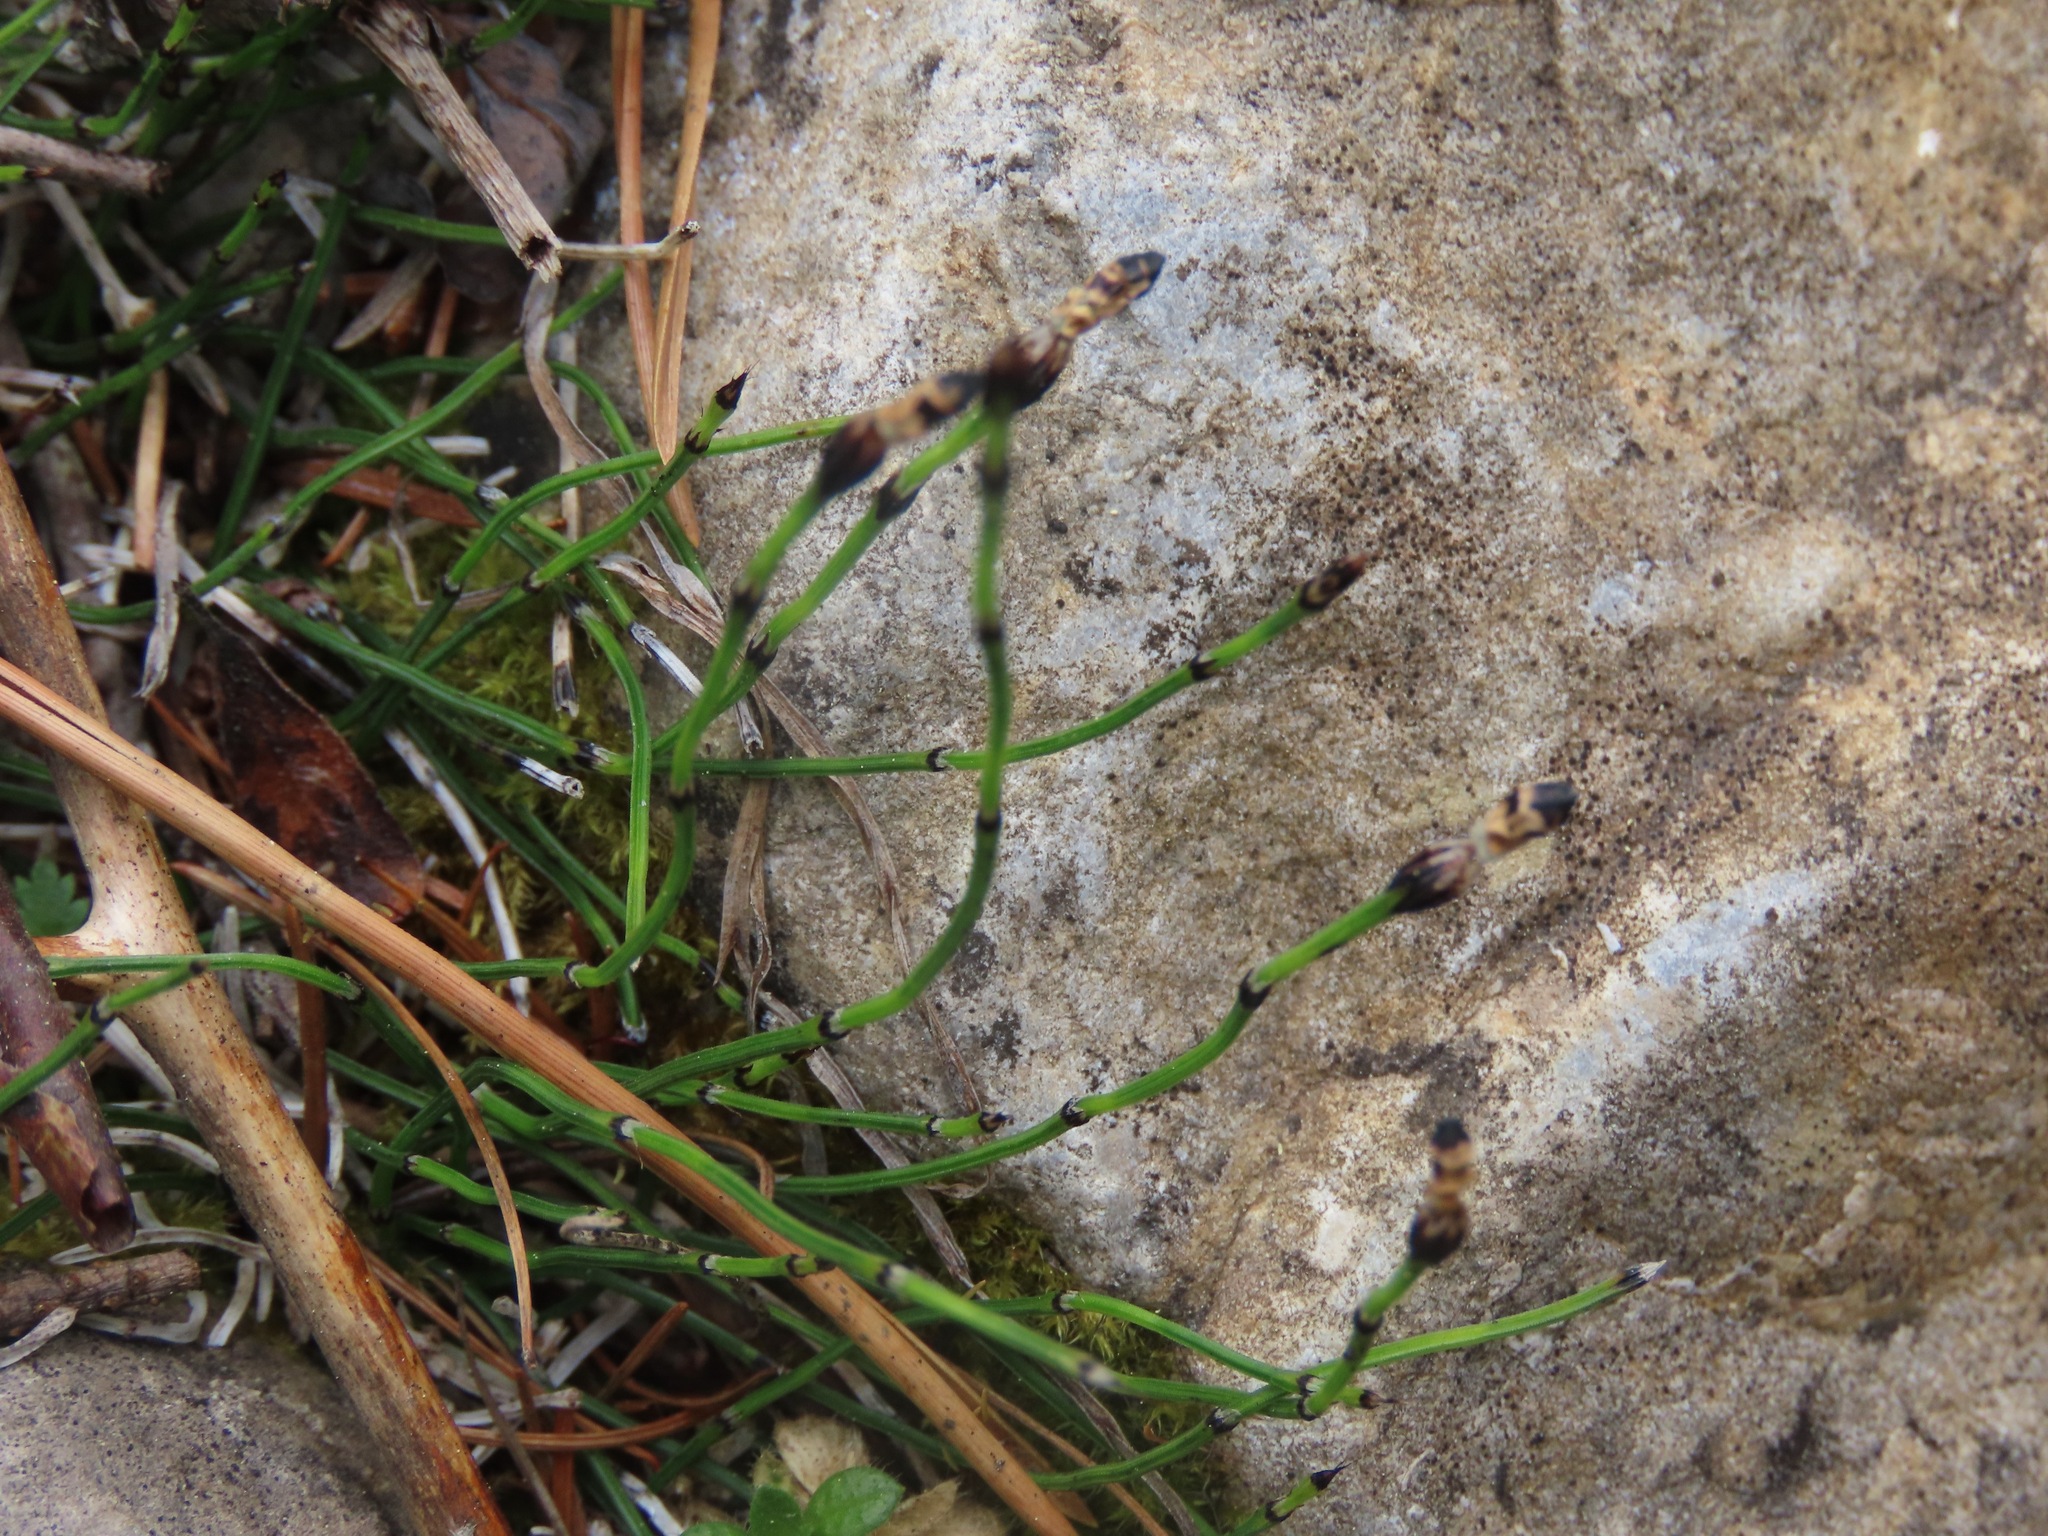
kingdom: Plantae
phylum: Tracheophyta
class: Polypodiopsida
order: Equisetales
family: Equisetaceae
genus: Equisetum
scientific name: Equisetum scirpoides
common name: Delicate horsetail
